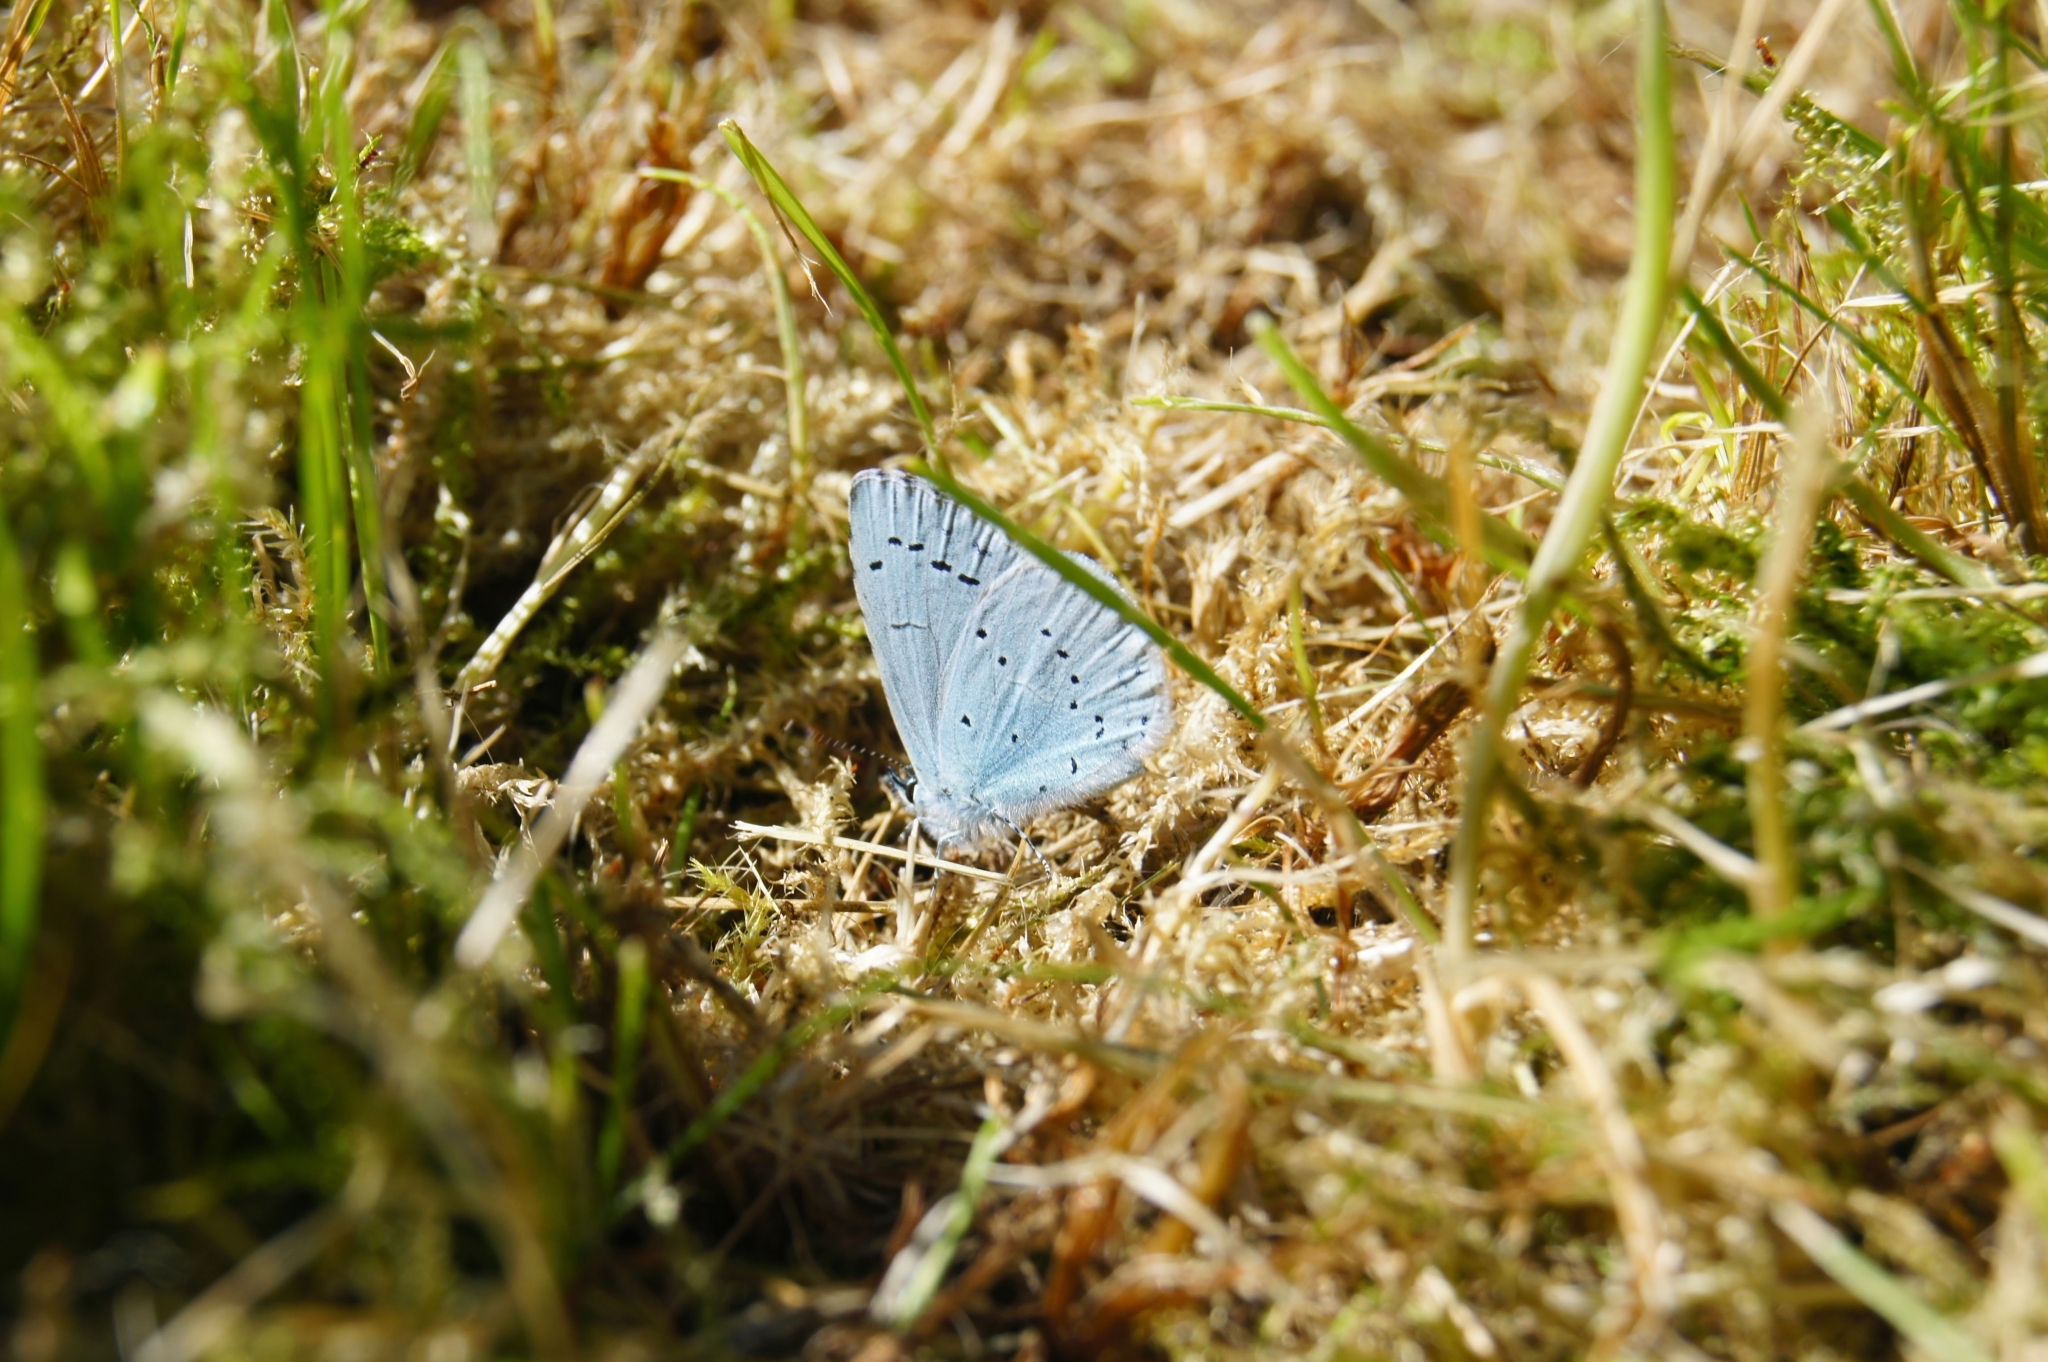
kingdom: Animalia
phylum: Arthropoda
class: Insecta
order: Lepidoptera
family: Lycaenidae
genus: Celastrina
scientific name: Celastrina argiolus
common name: Holly blue
